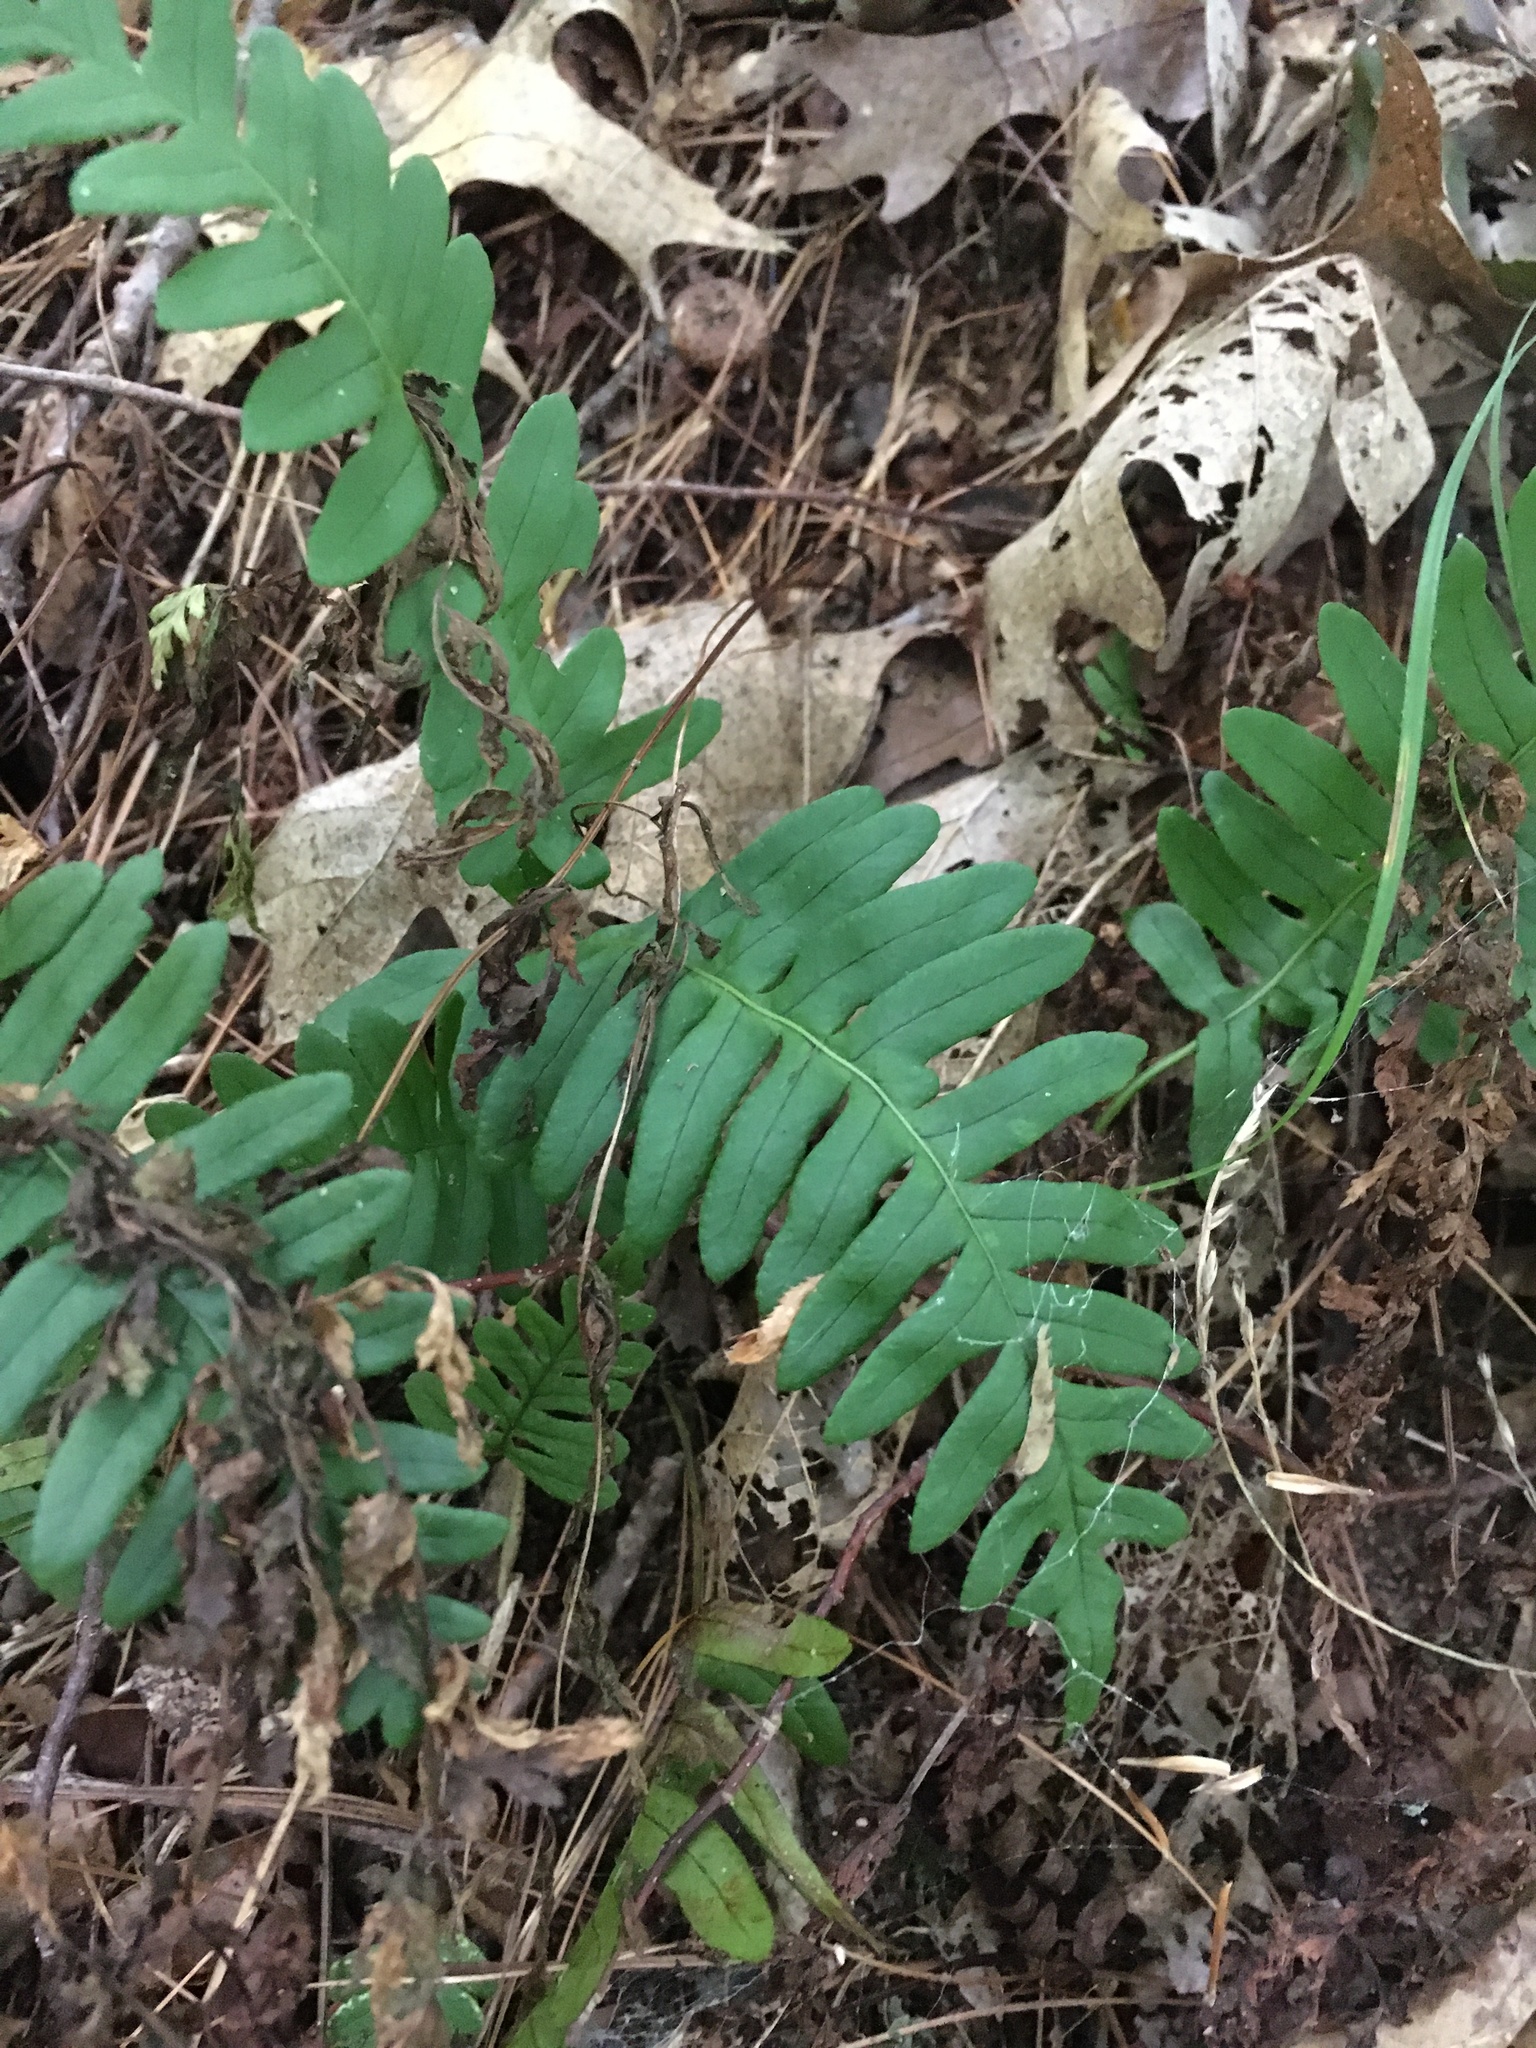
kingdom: Plantae
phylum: Tracheophyta
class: Polypodiopsida
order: Polypodiales
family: Polypodiaceae
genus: Polypodium
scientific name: Polypodium virginianum
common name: American wall fern
